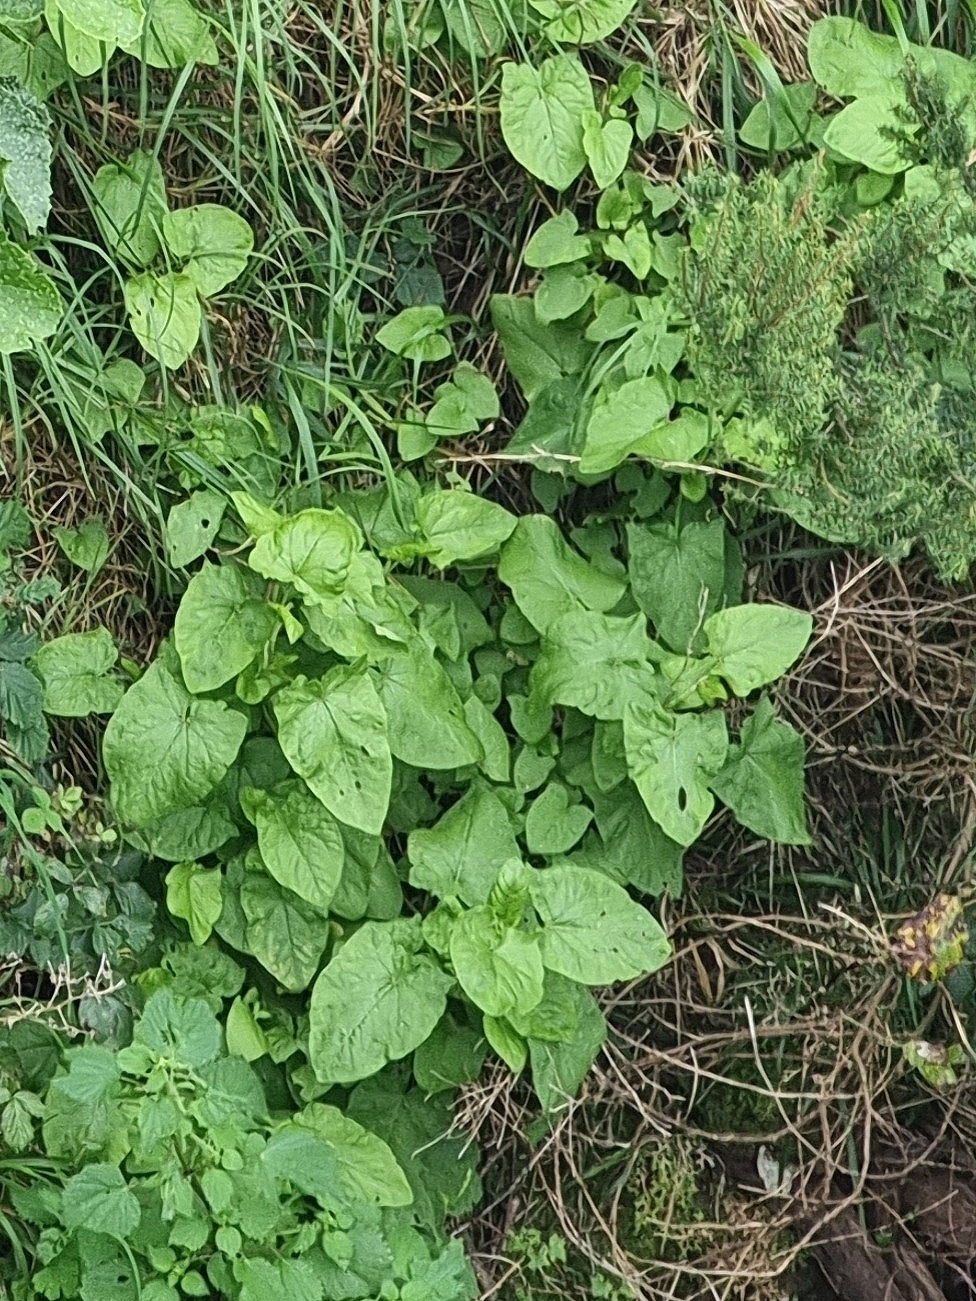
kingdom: Plantae
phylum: Tracheophyta
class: Magnoliopsida
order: Caryophyllales
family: Polygonaceae
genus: Rumex
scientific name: Rumex maderensis
